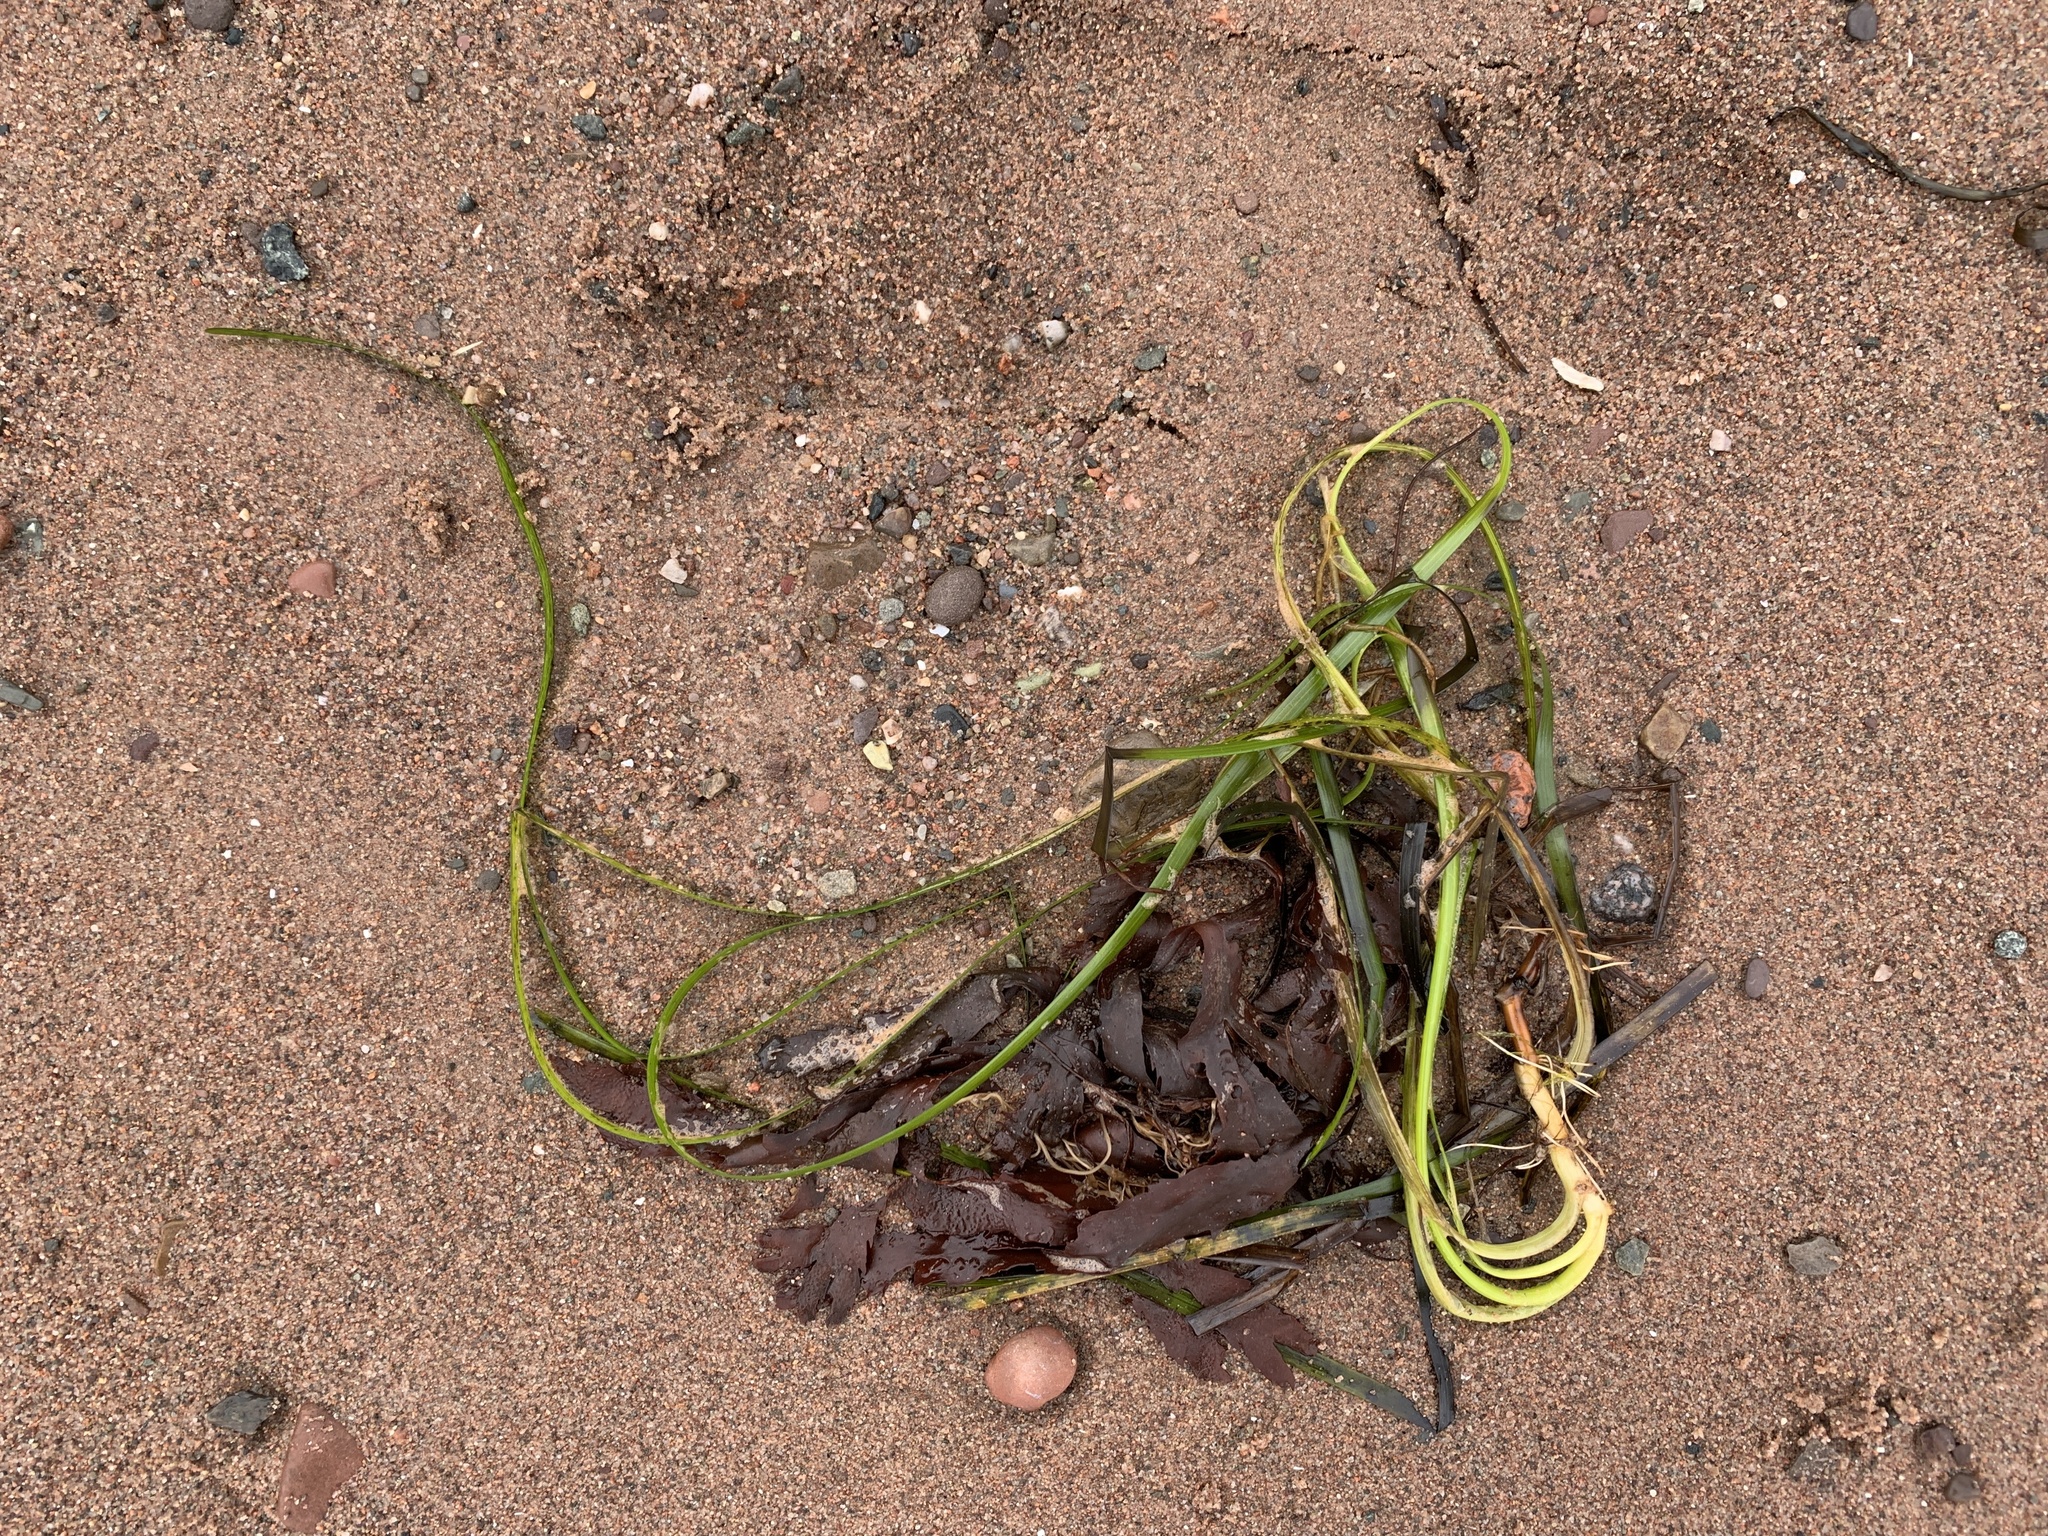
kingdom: Plantae
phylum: Tracheophyta
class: Liliopsida
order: Alismatales
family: Zosteraceae
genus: Zostera
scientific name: Zostera marina
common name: Eelgrass
